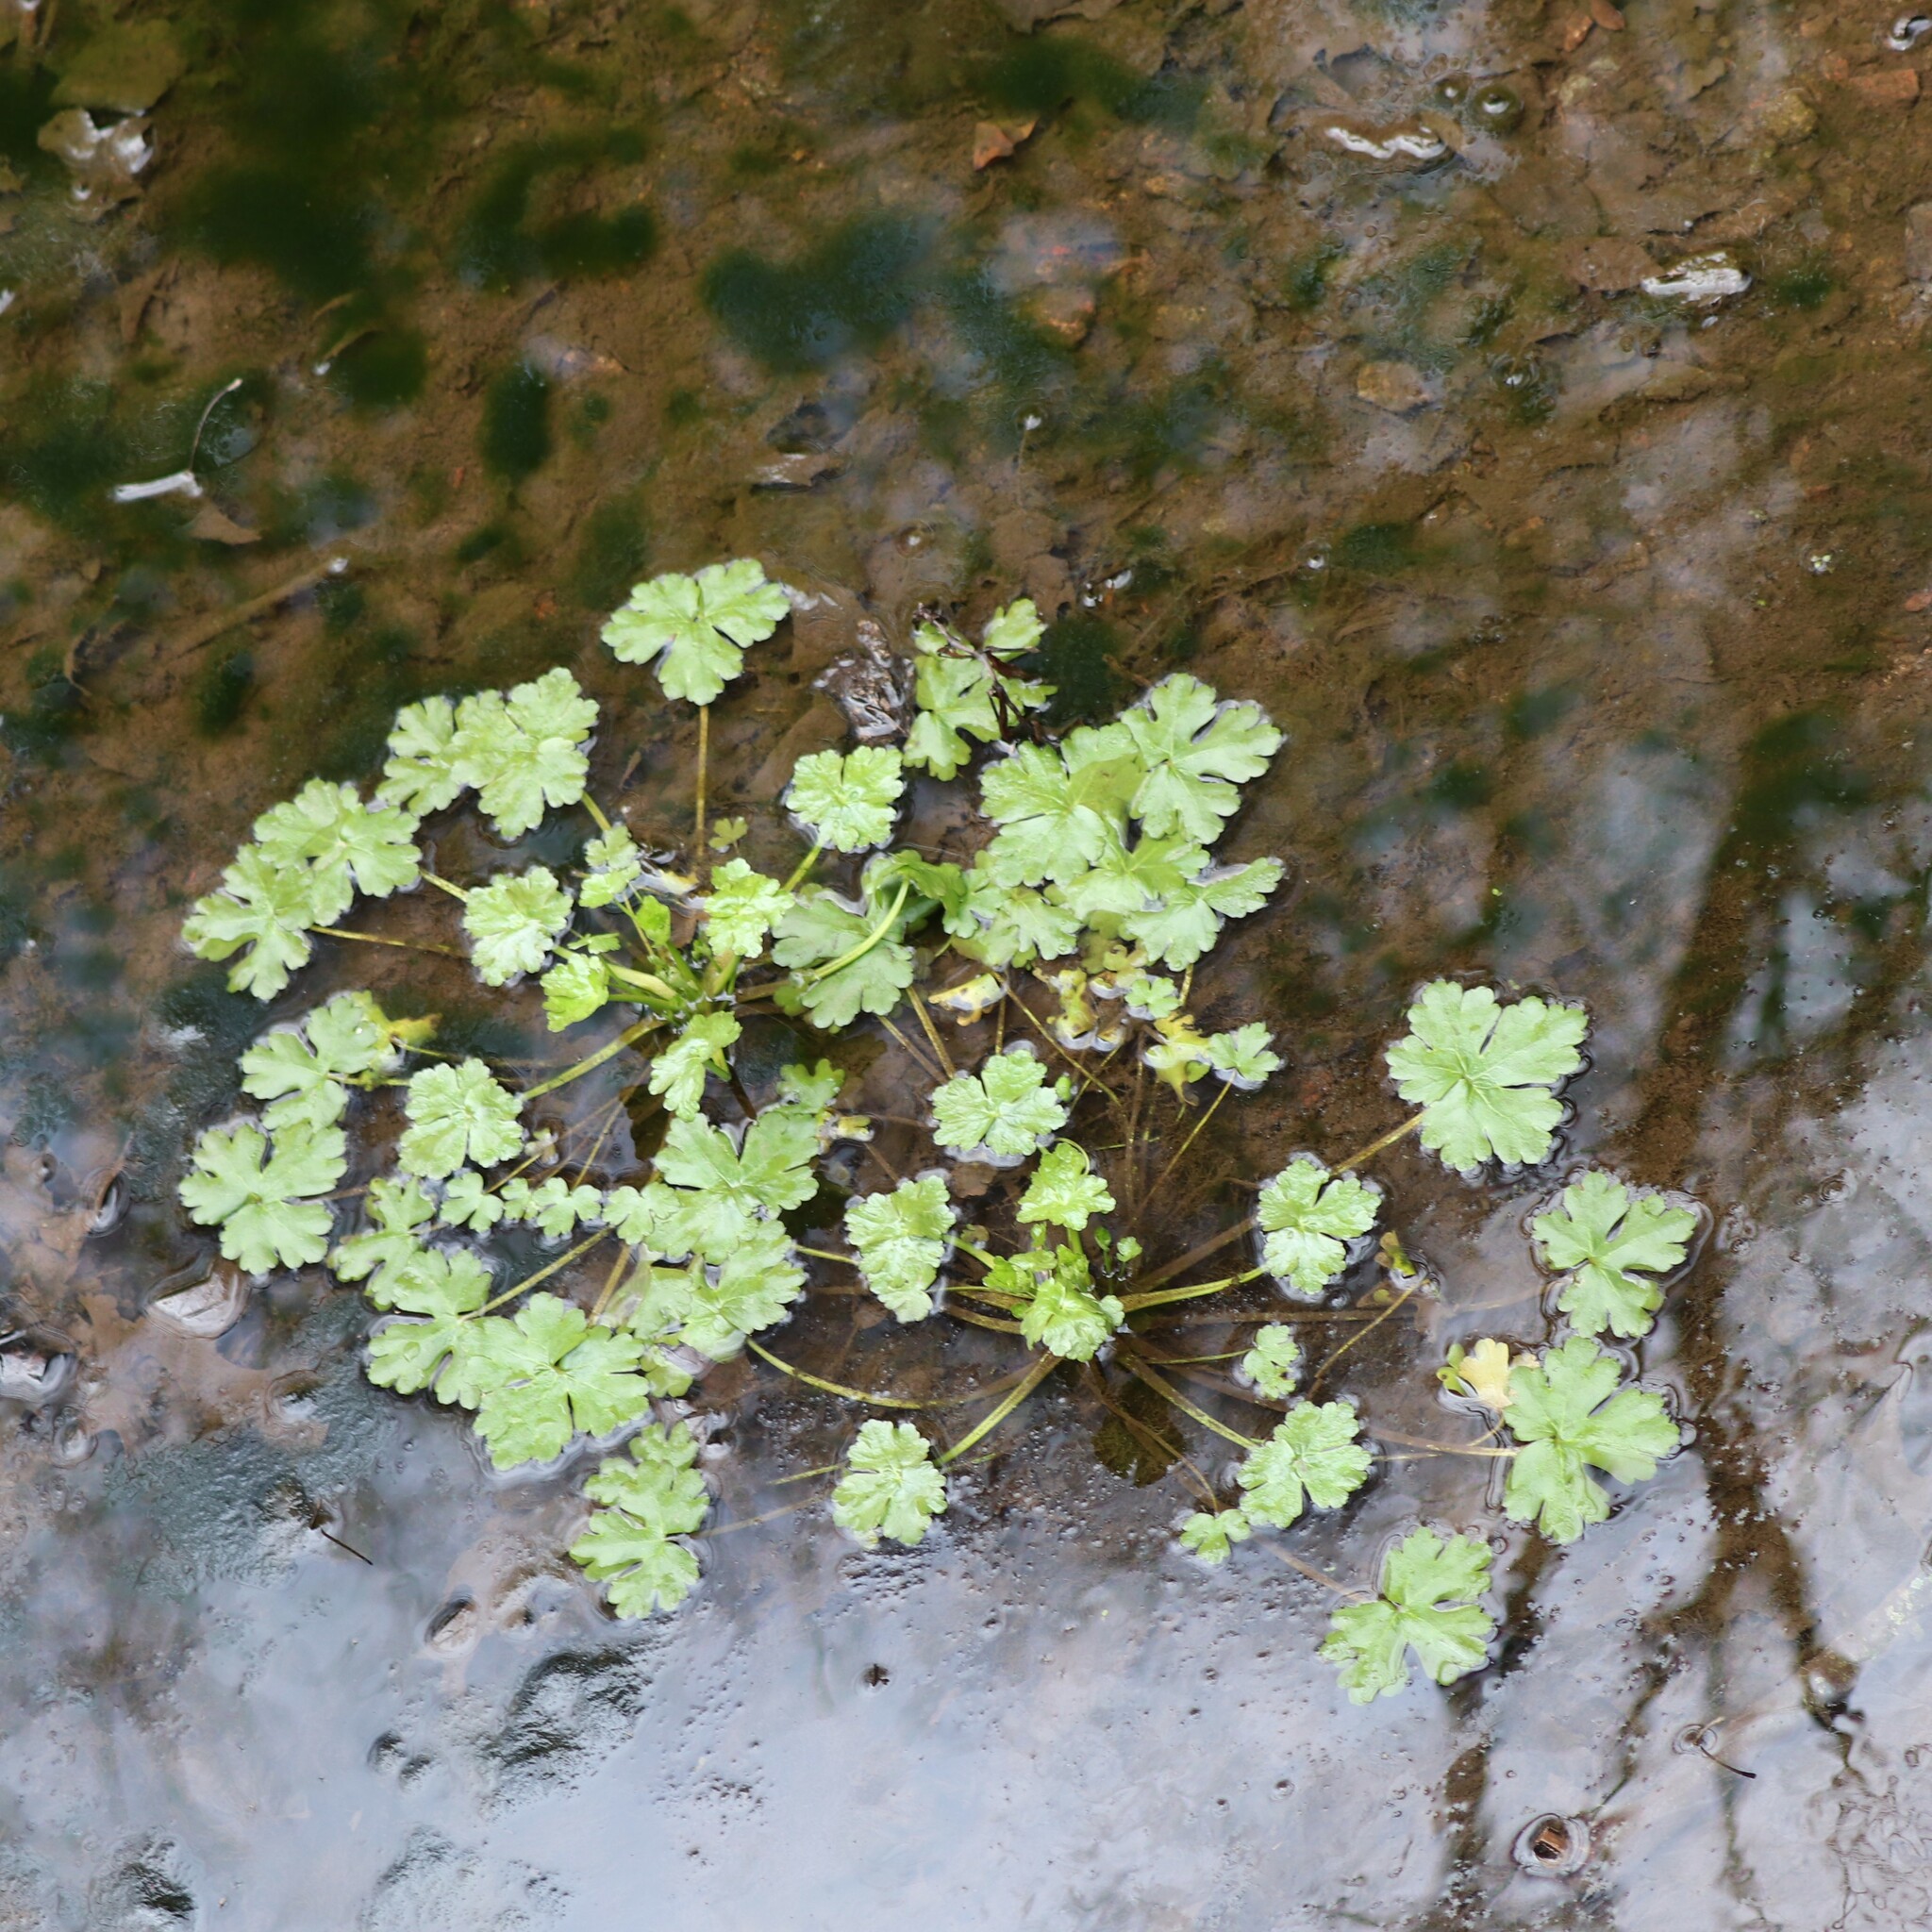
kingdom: Plantae
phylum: Tracheophyta
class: Magnoliopsida
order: Ranunculales
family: Ranunculaceae
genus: Ranunculus
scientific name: Ranunculus sceleratus
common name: Celery-leaved buttercup
